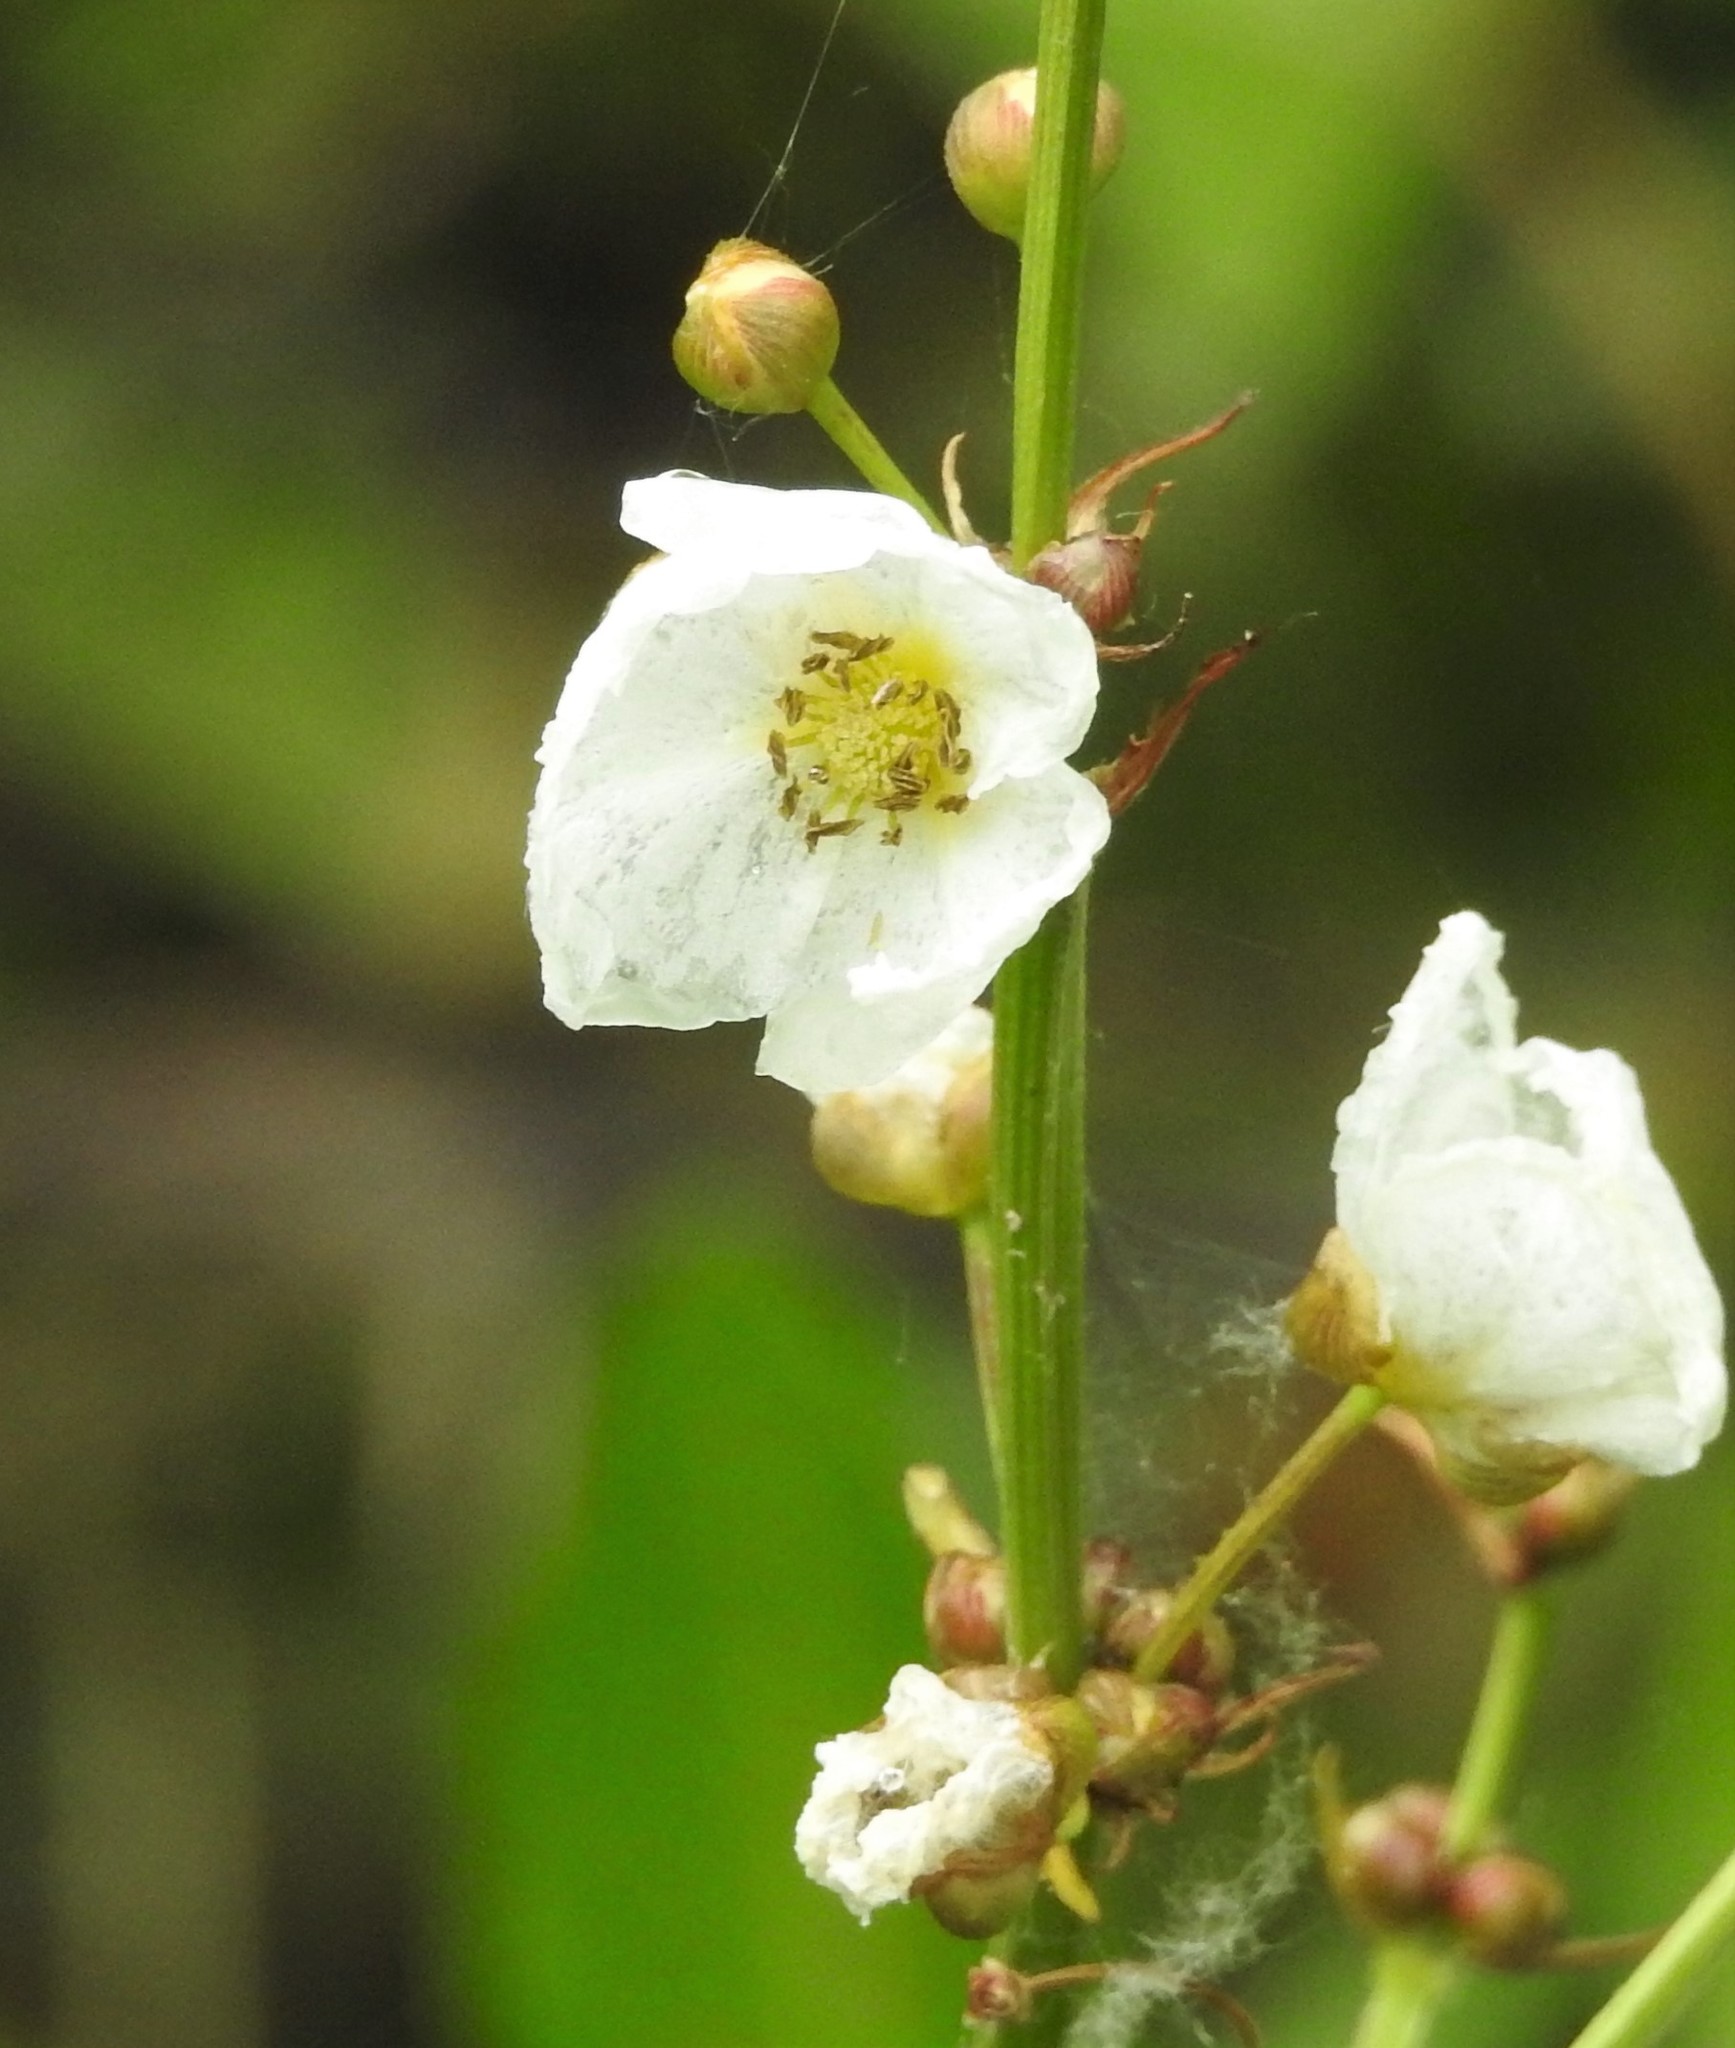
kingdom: Plantae
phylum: Tracheophyta
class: Liliopsida
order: Alismatales
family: Alismataceae
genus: Aquarius
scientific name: Aquarius grandiflorus
